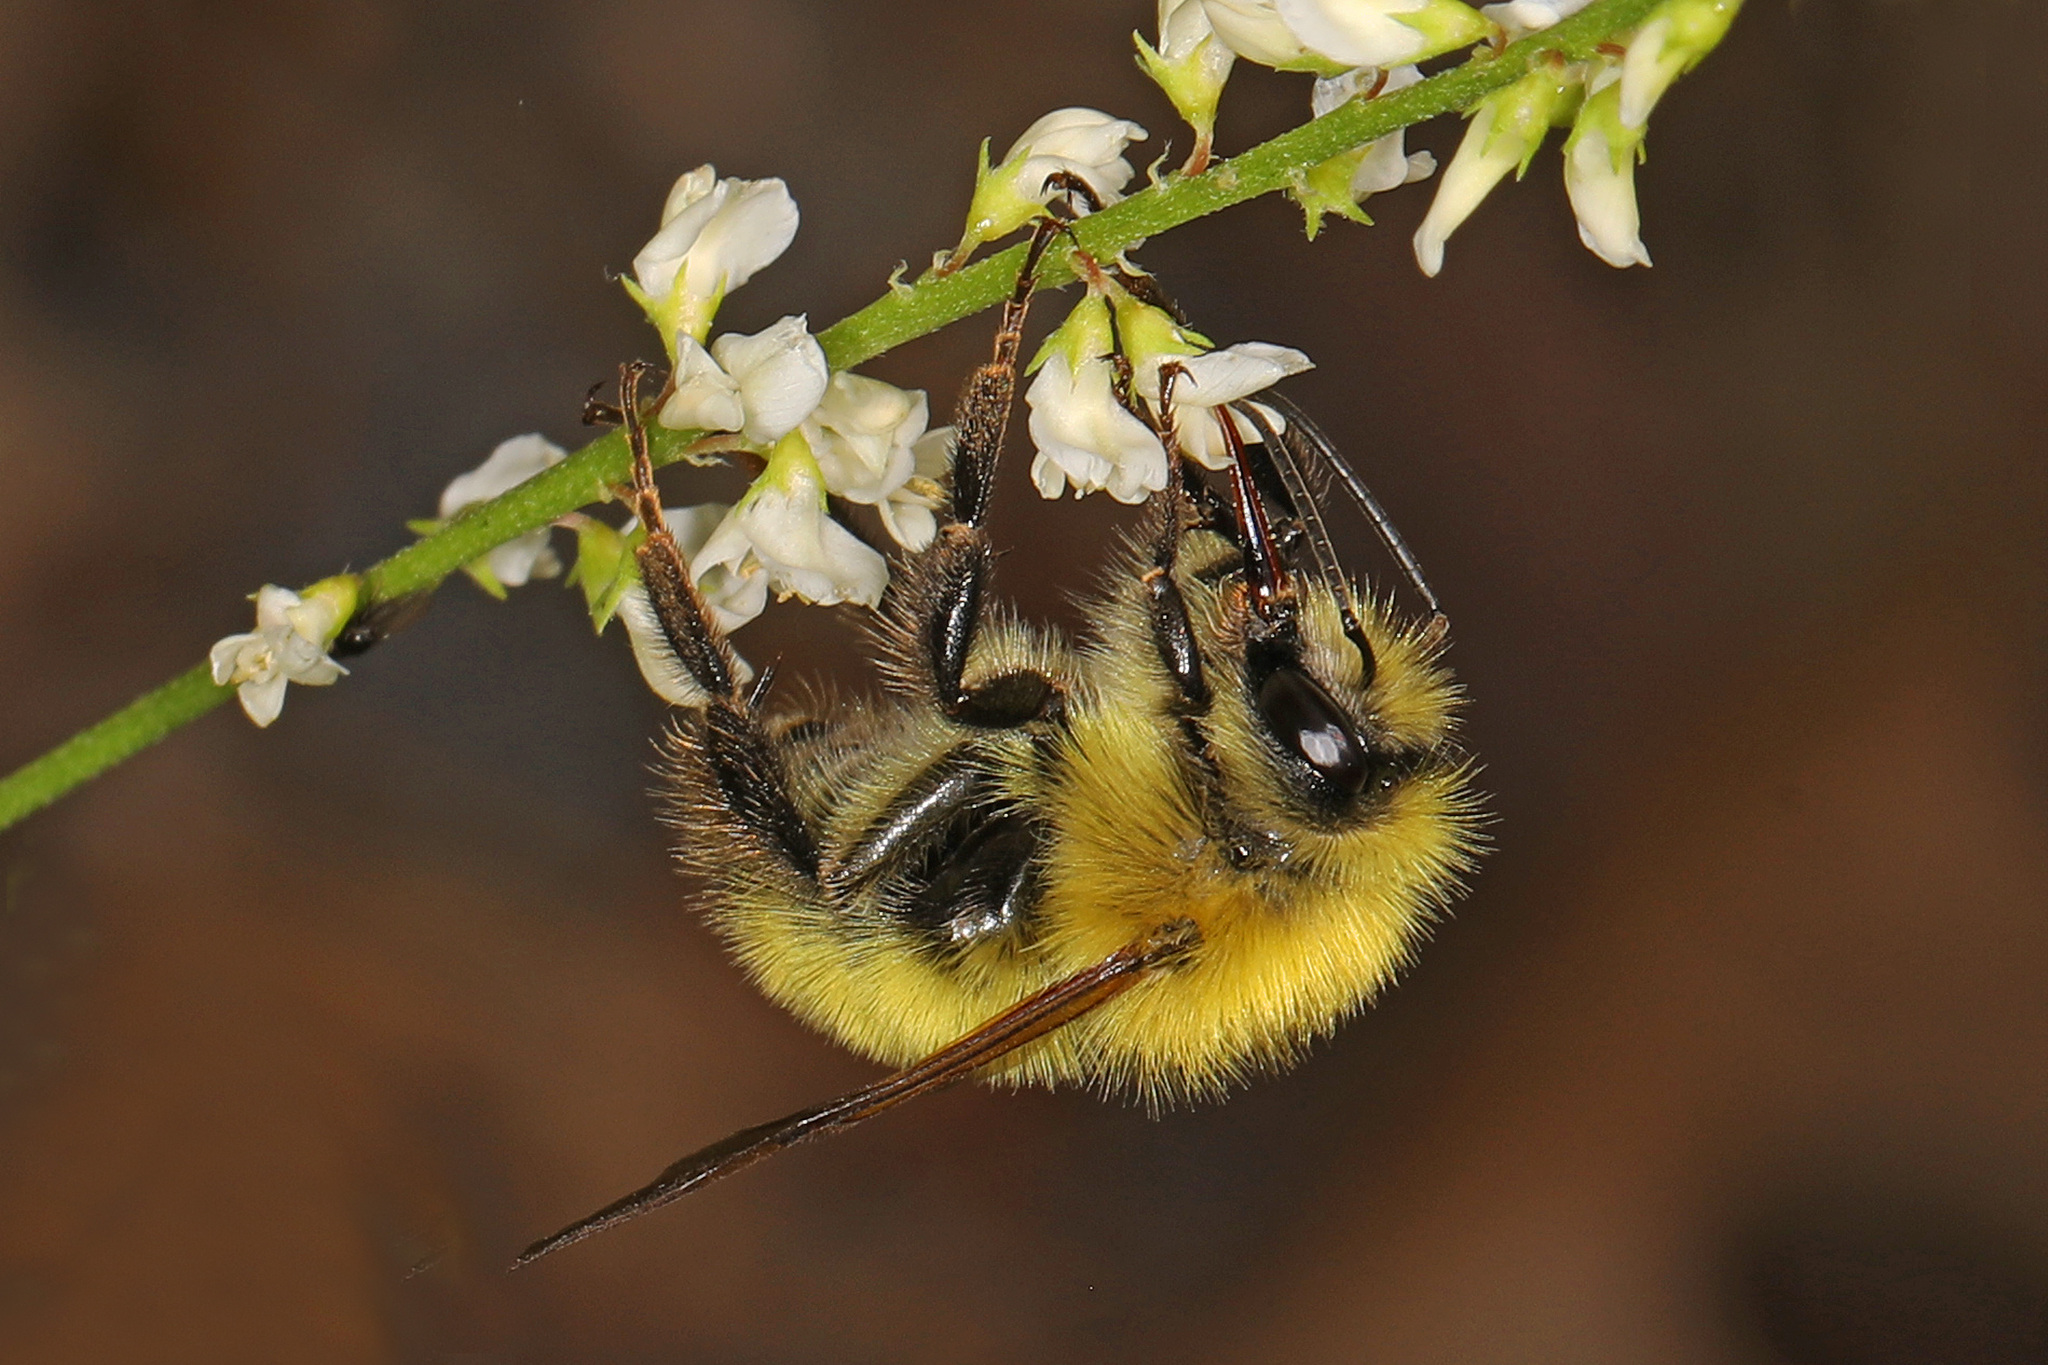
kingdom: Animalia
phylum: Arthropoda
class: Insecta
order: Hymenoptera
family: Apidae
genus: Bombus
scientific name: Bombus perplexus
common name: Confusing bumble bee
